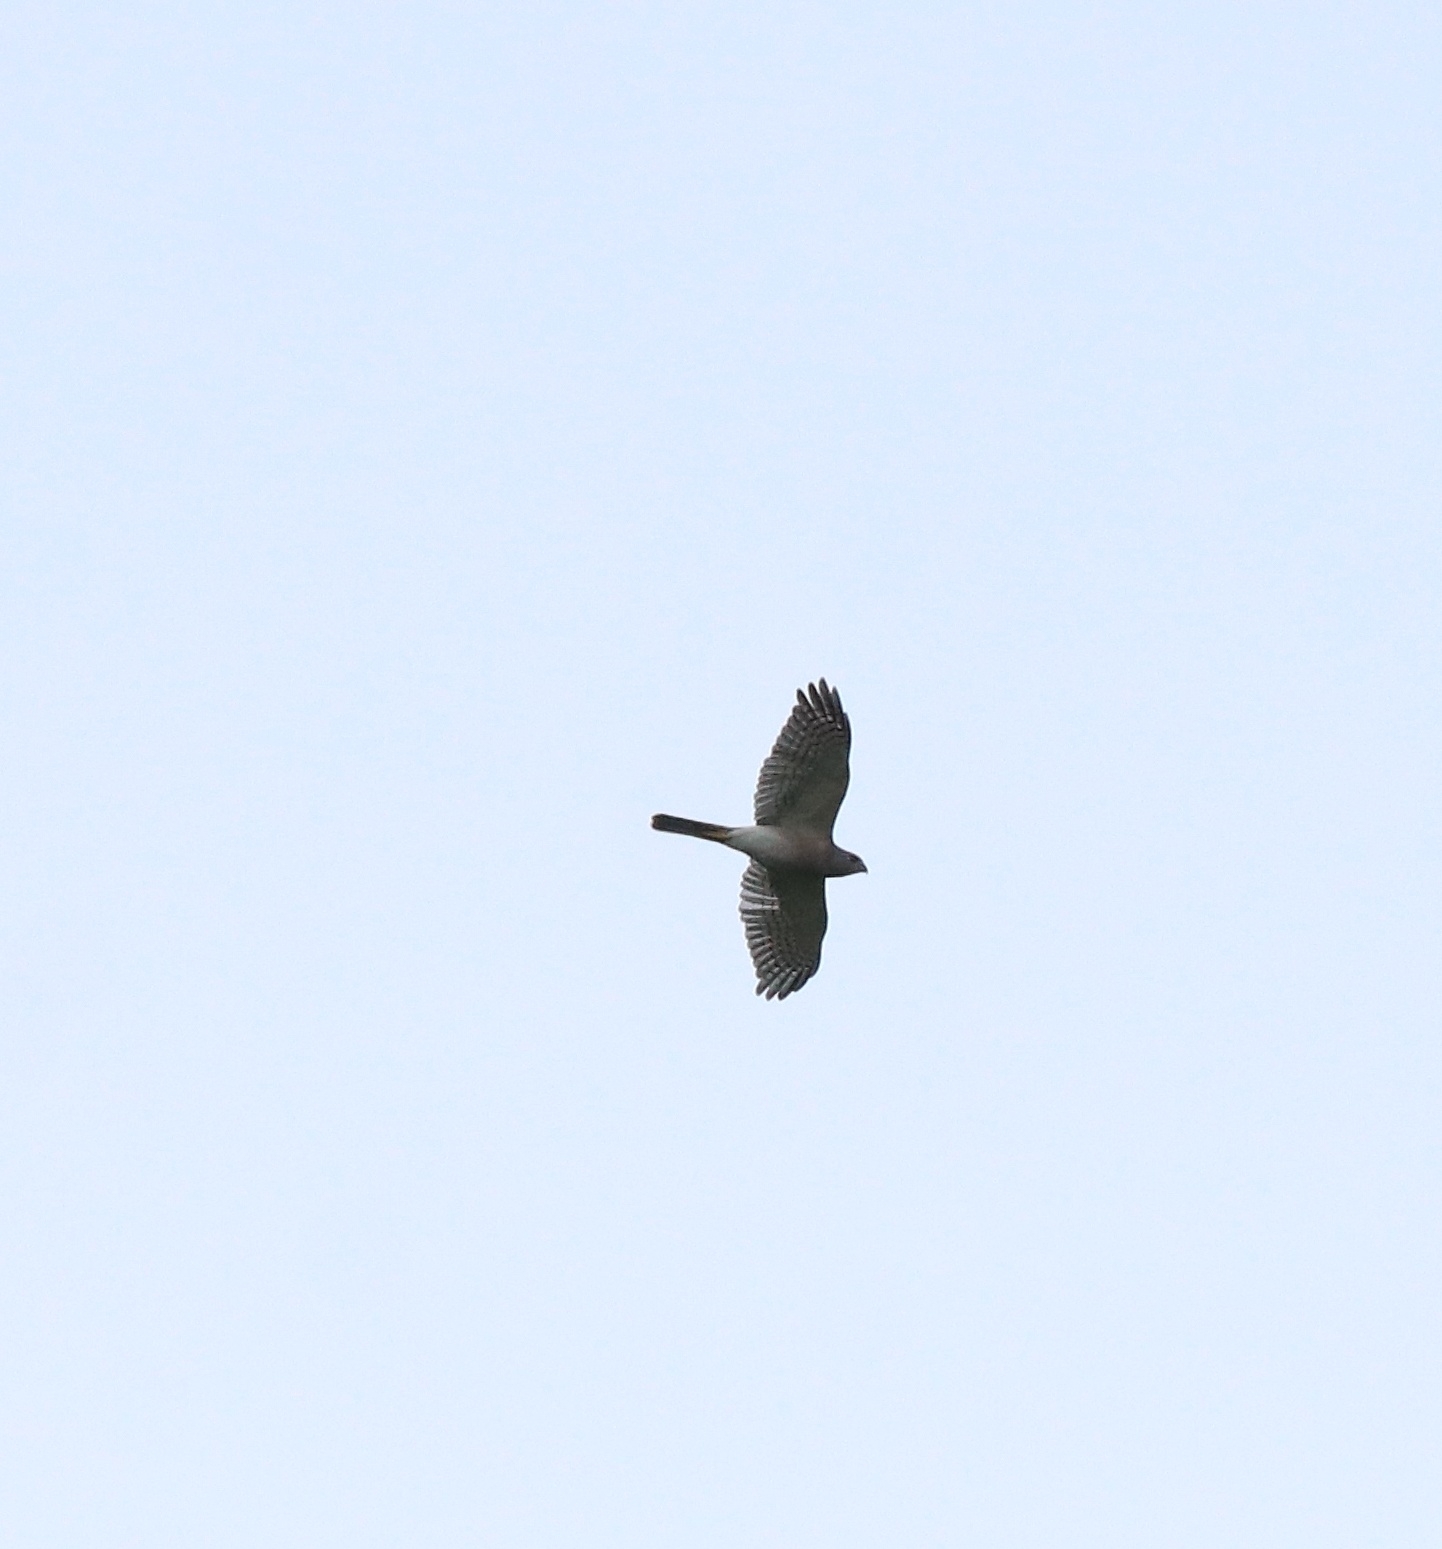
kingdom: Animalia
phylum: Chordata
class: Aves
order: Accipitriformes
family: Accipitridae
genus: Accipiter
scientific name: Accipiter badius
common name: Shikra
